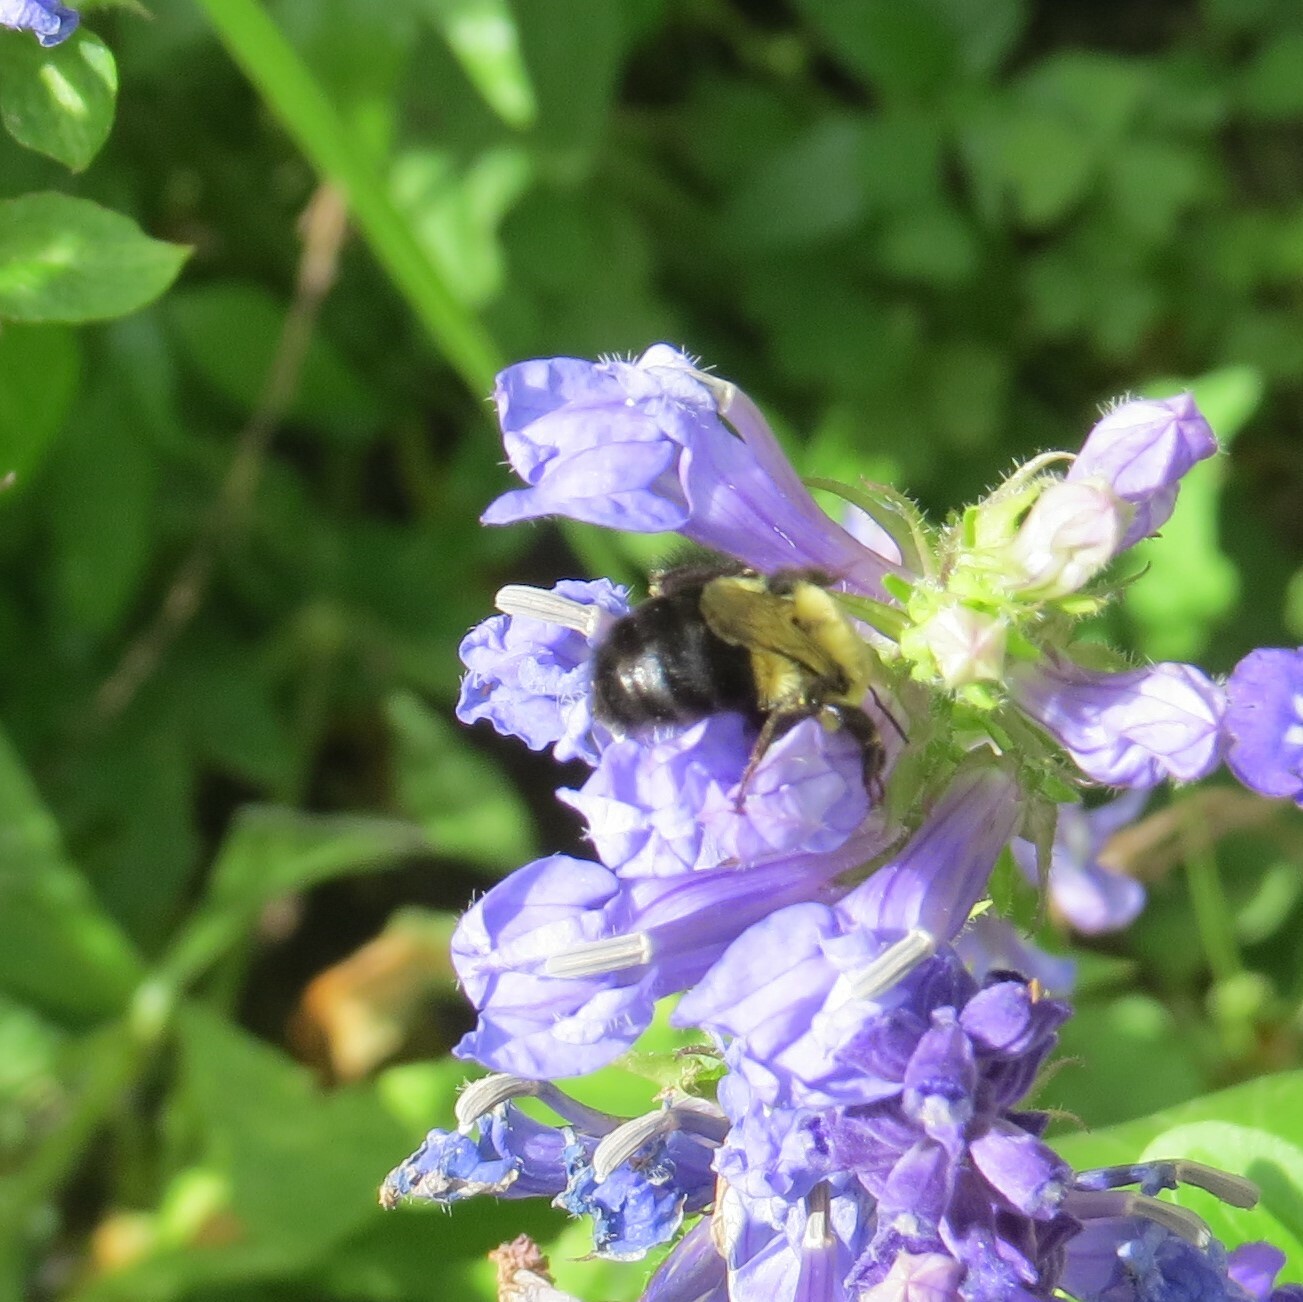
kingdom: Animalia
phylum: Arthropoda
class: Insecta
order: Hymenoptera
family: Apidae
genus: Bombus
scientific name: Bombus impatiens
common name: Common eastern bumble bee
